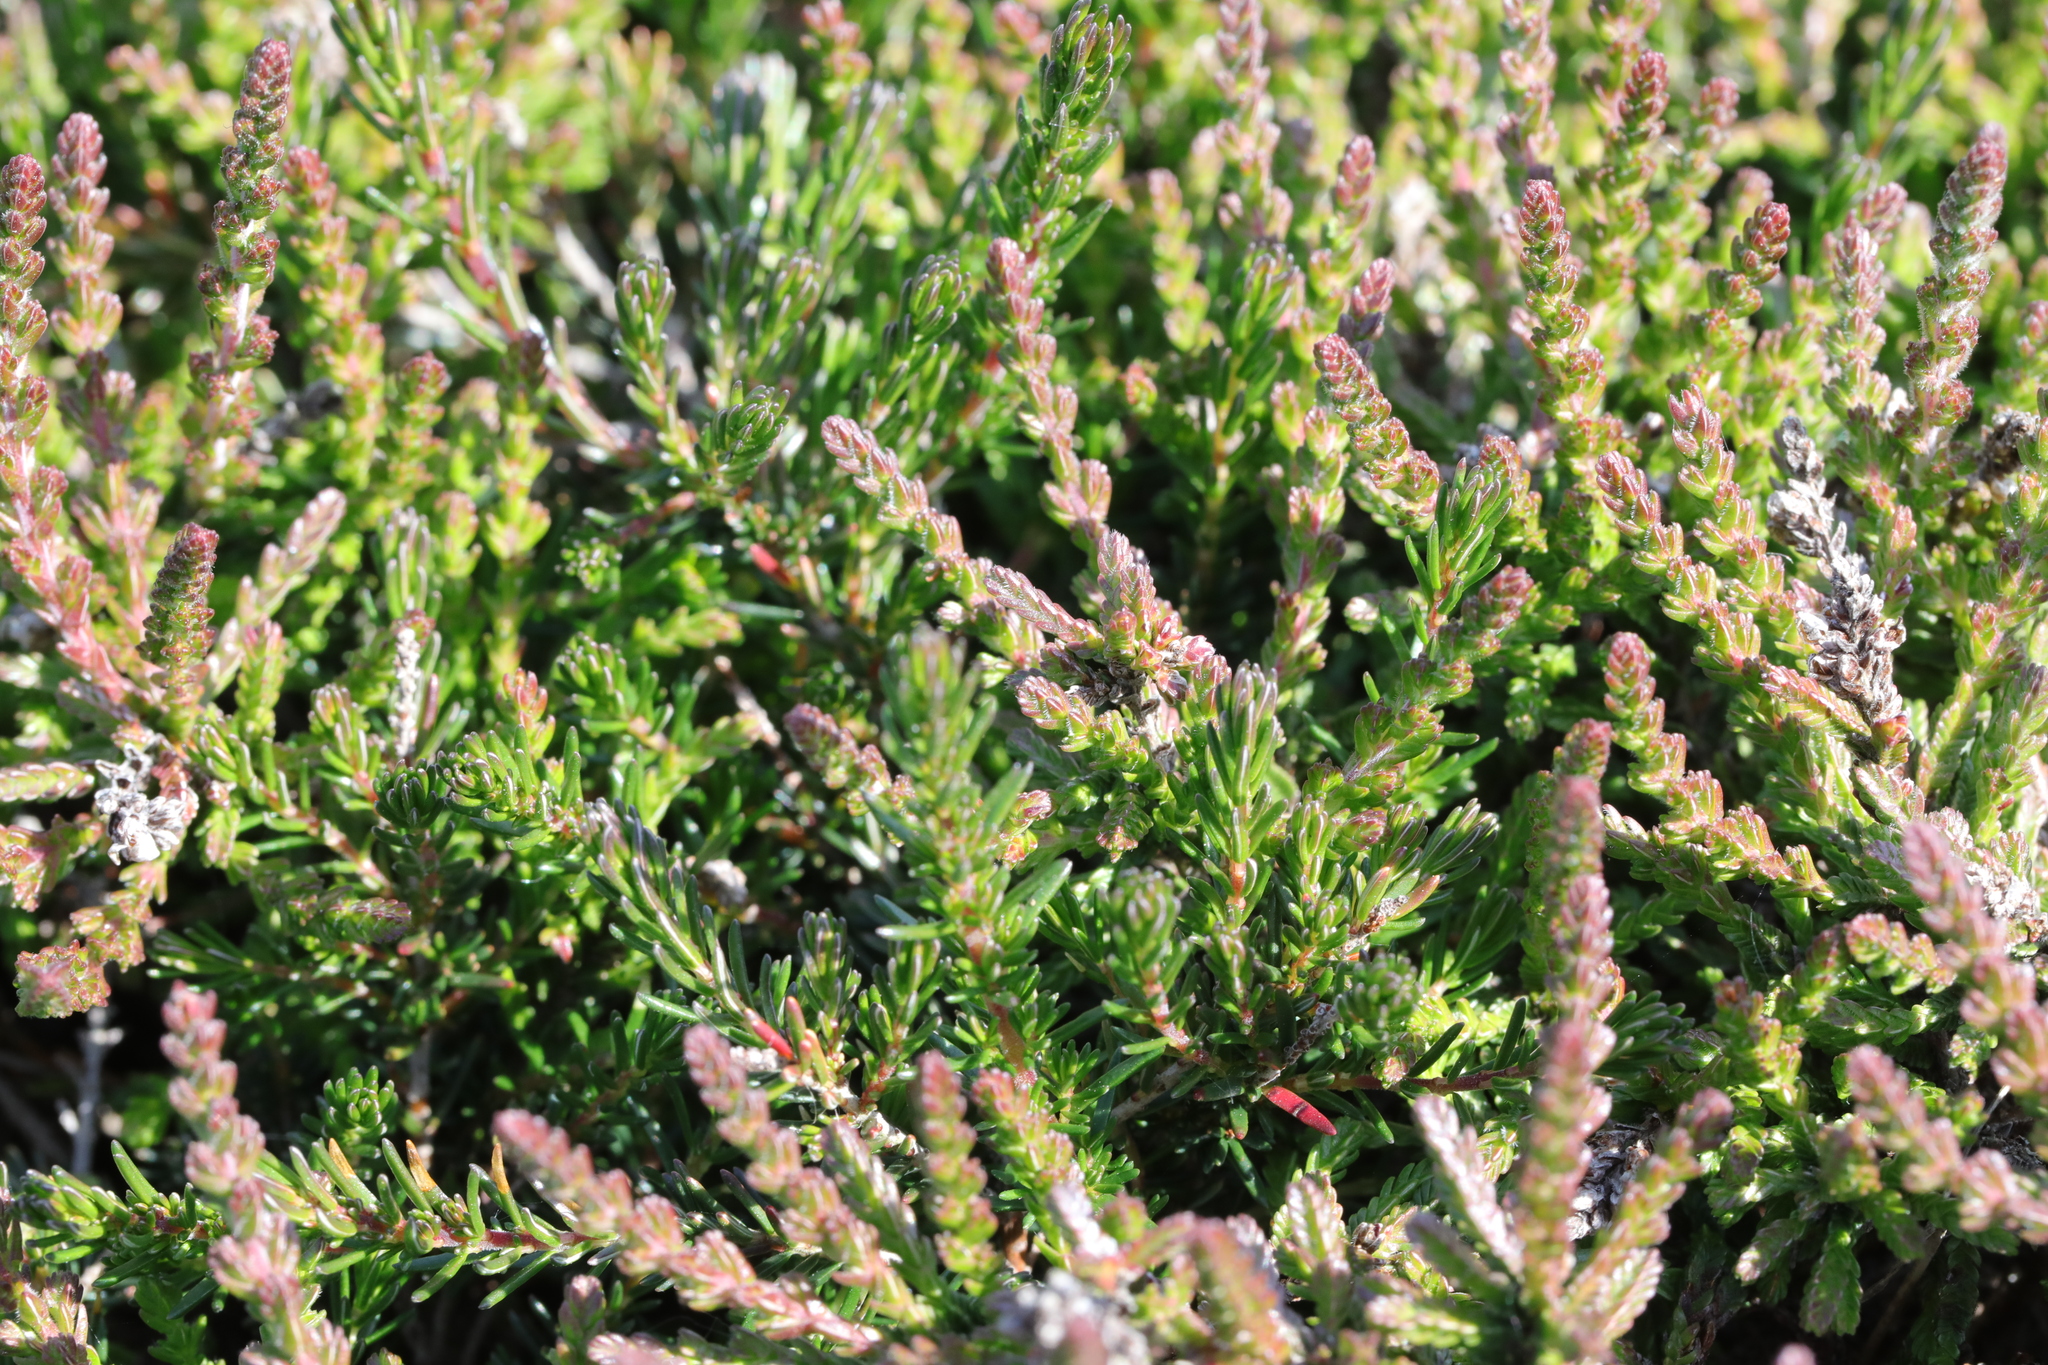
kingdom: Plantae
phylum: Tracheophyta
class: Magnoliopsida
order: Ericales
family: Ericaceae
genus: Calluna
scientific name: Calluna vulgaris
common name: Heather
